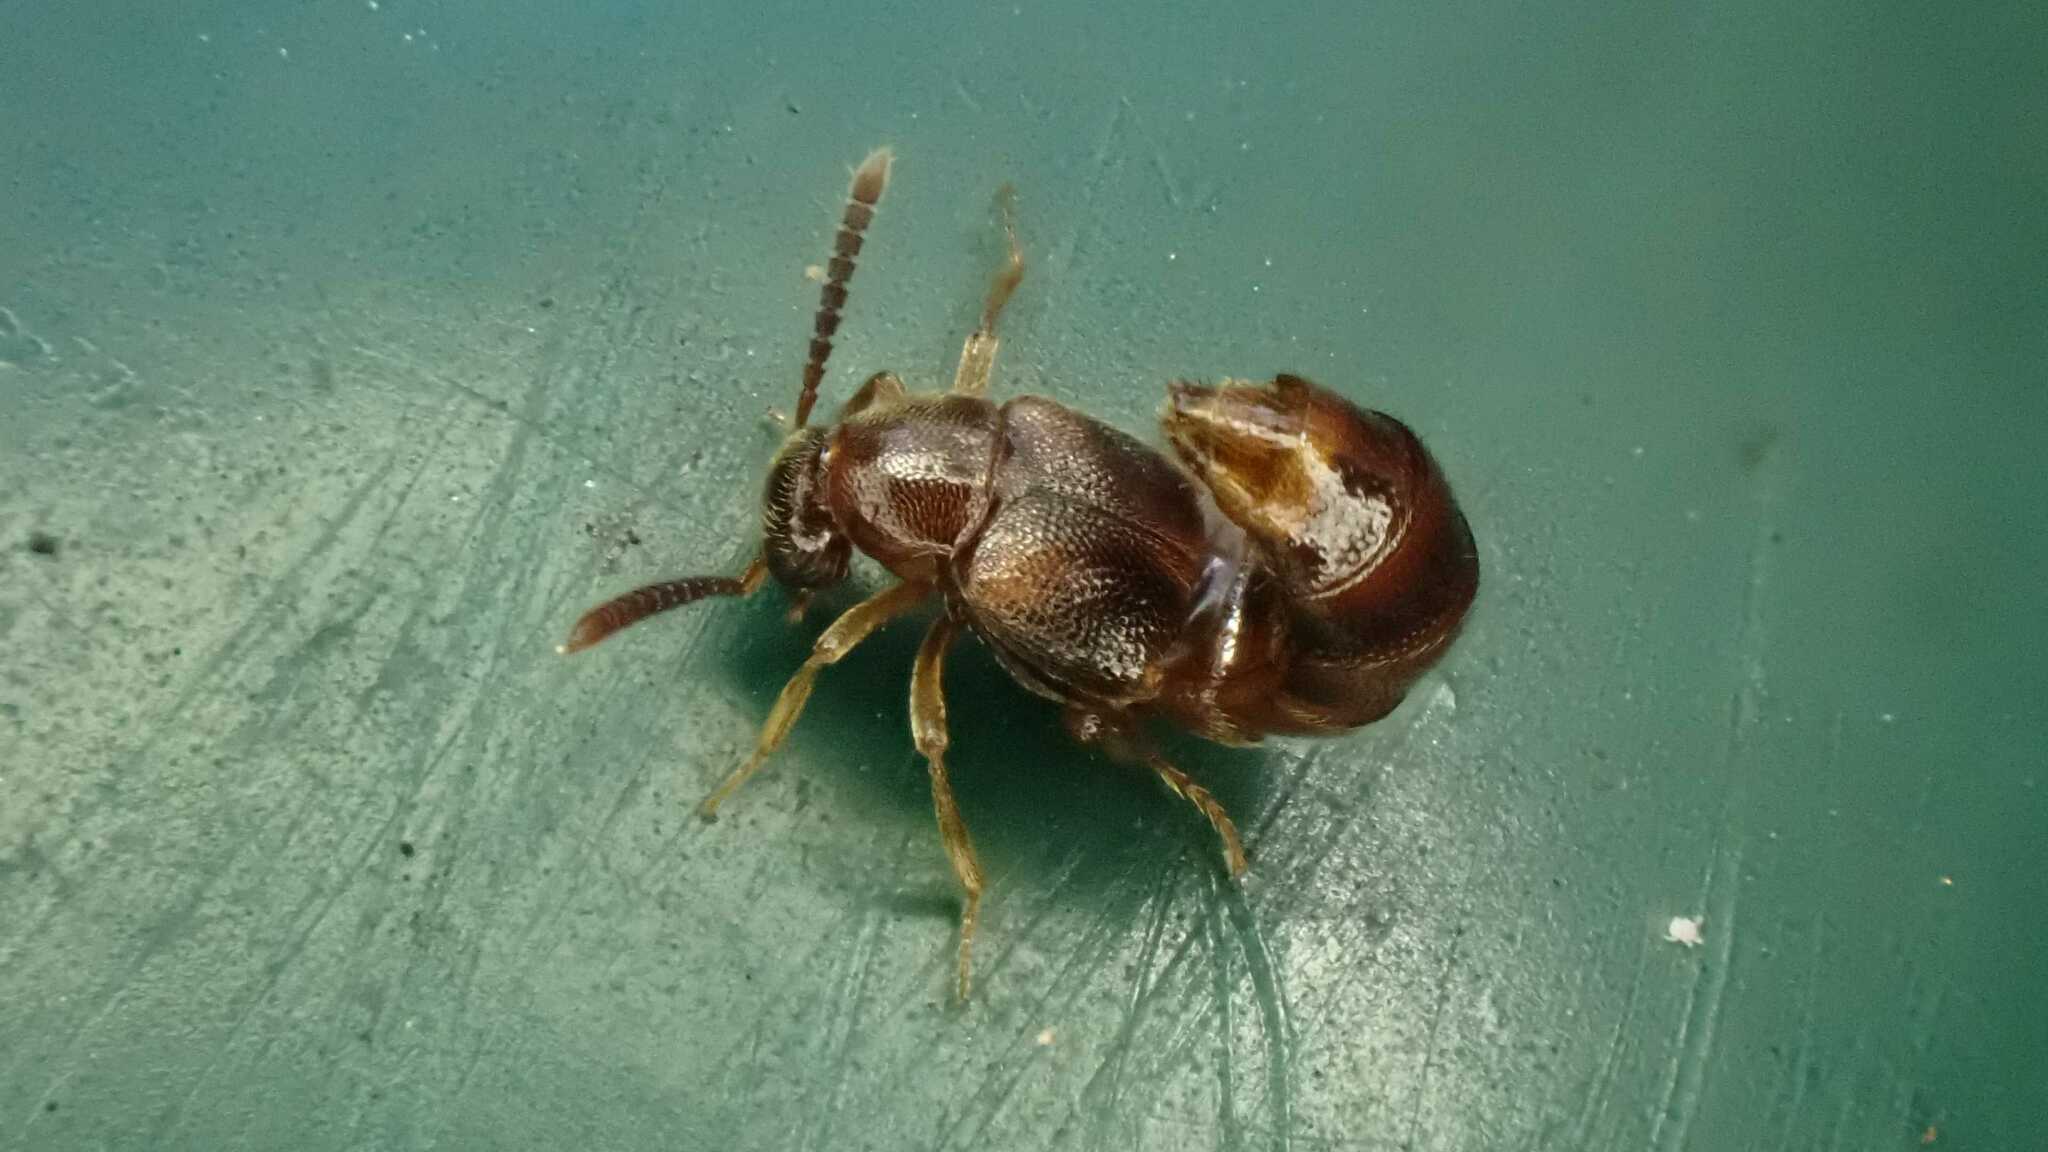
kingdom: Animalia
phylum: Arthropoda
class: Insecta
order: Coleoptera
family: Staphylinidae
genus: Bolitochara
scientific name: Bolitochara mulsanti
